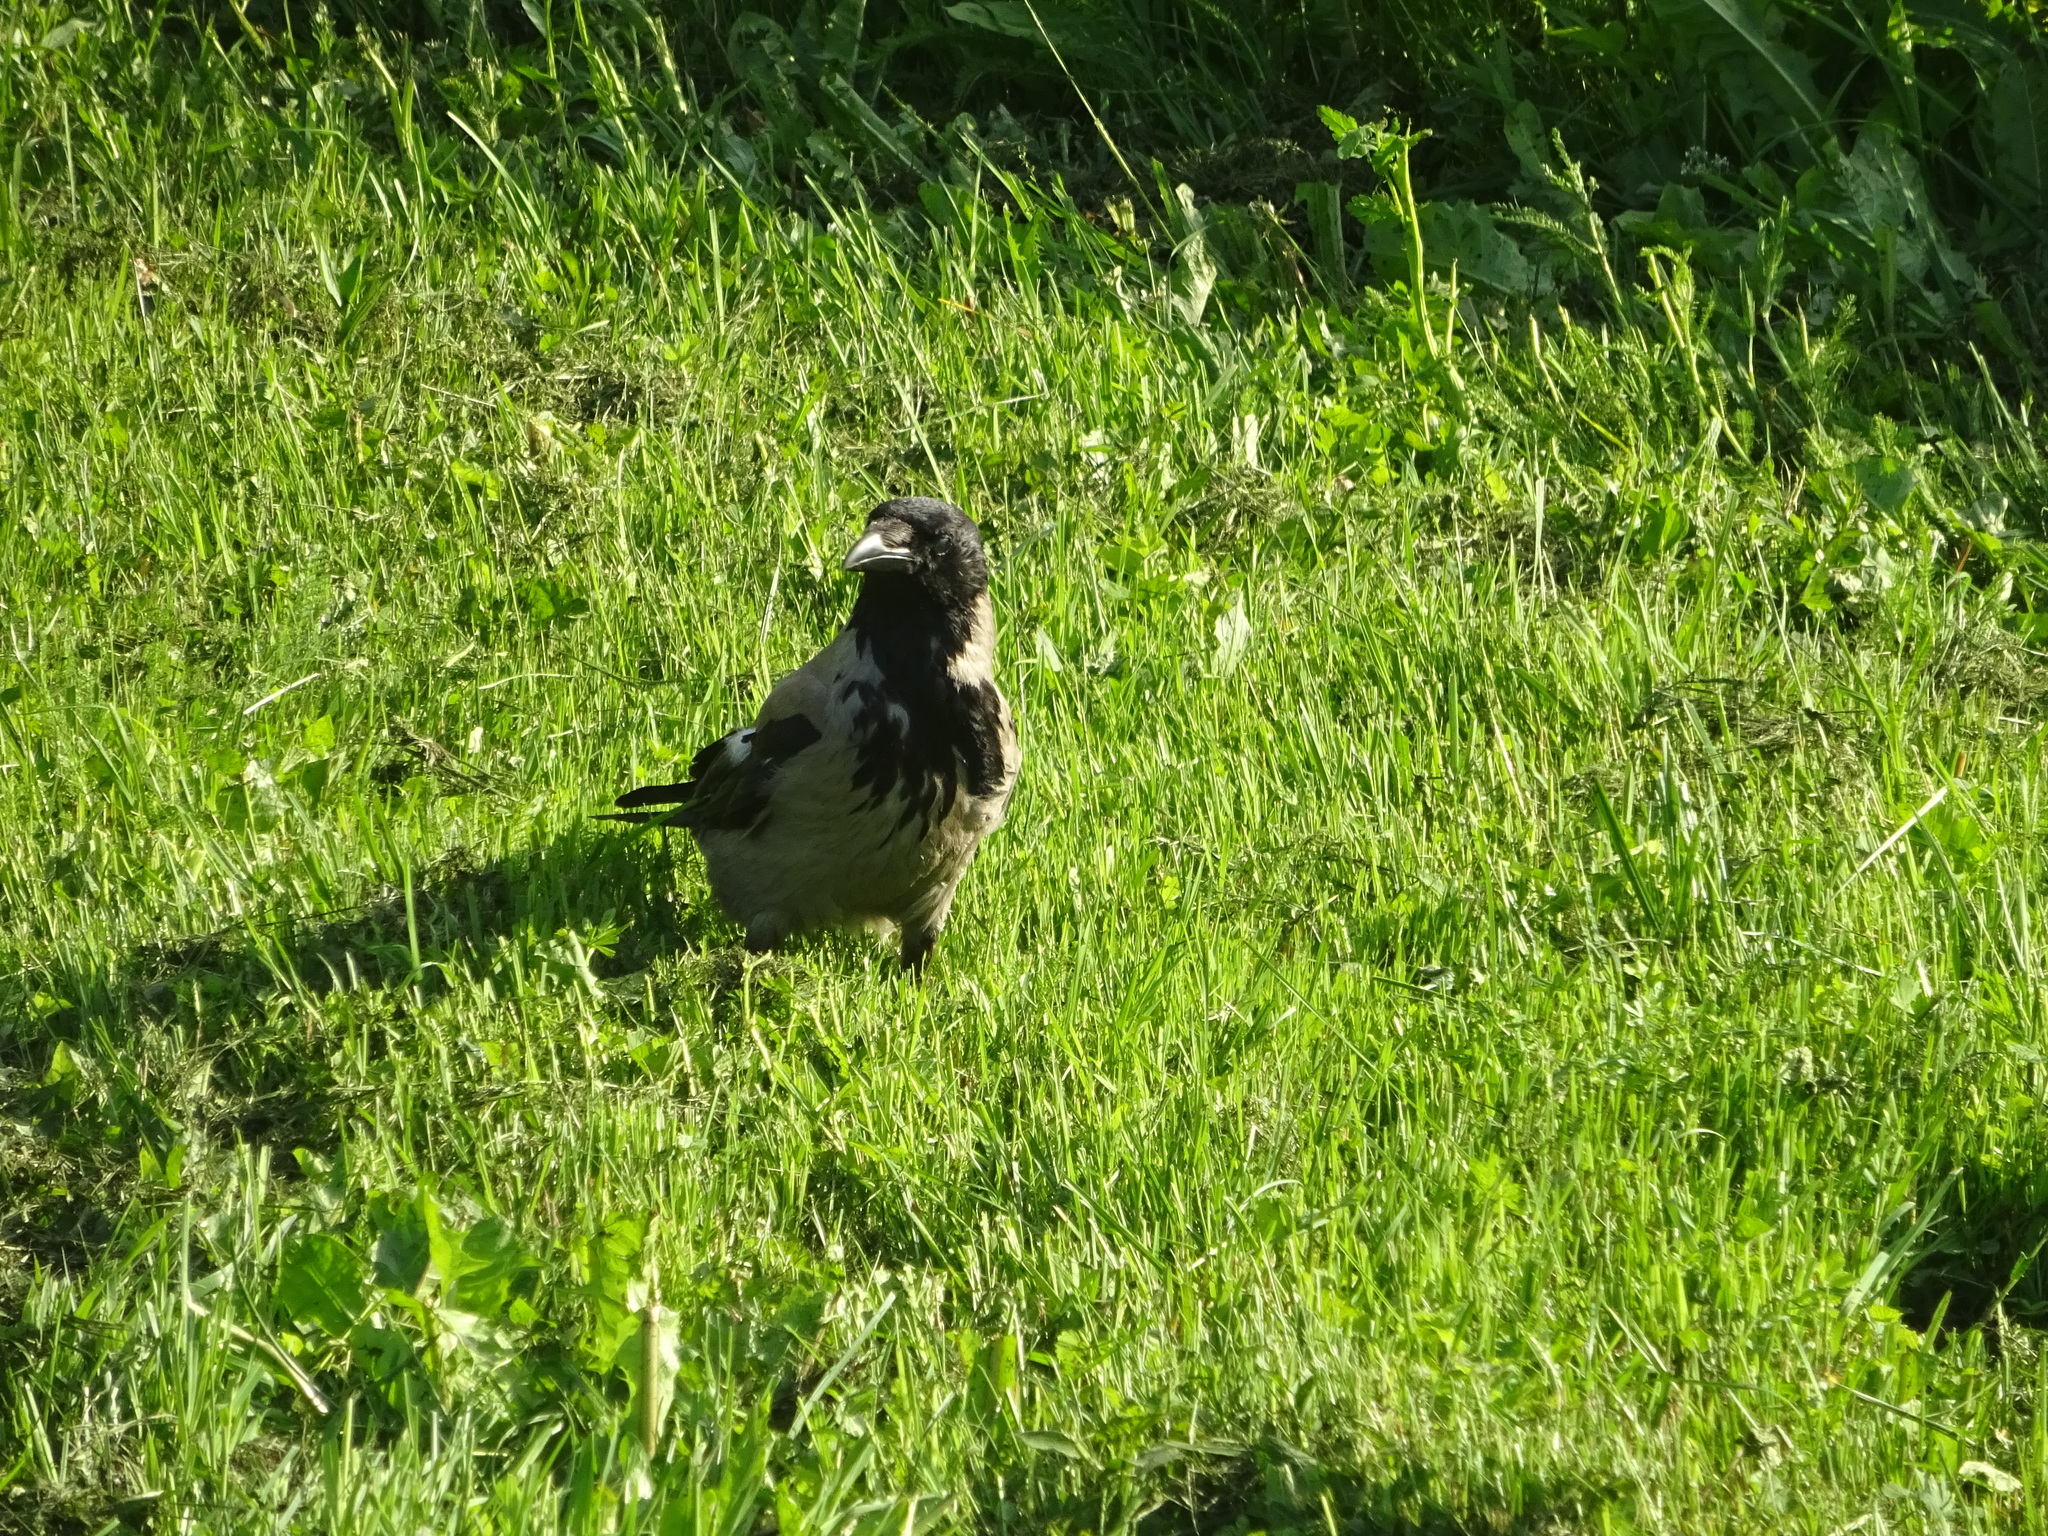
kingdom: Animalia
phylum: Chordata
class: Aves
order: Passeriformes
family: Corvidae
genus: Corvus
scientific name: Corvus cornix
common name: Hooded crow
